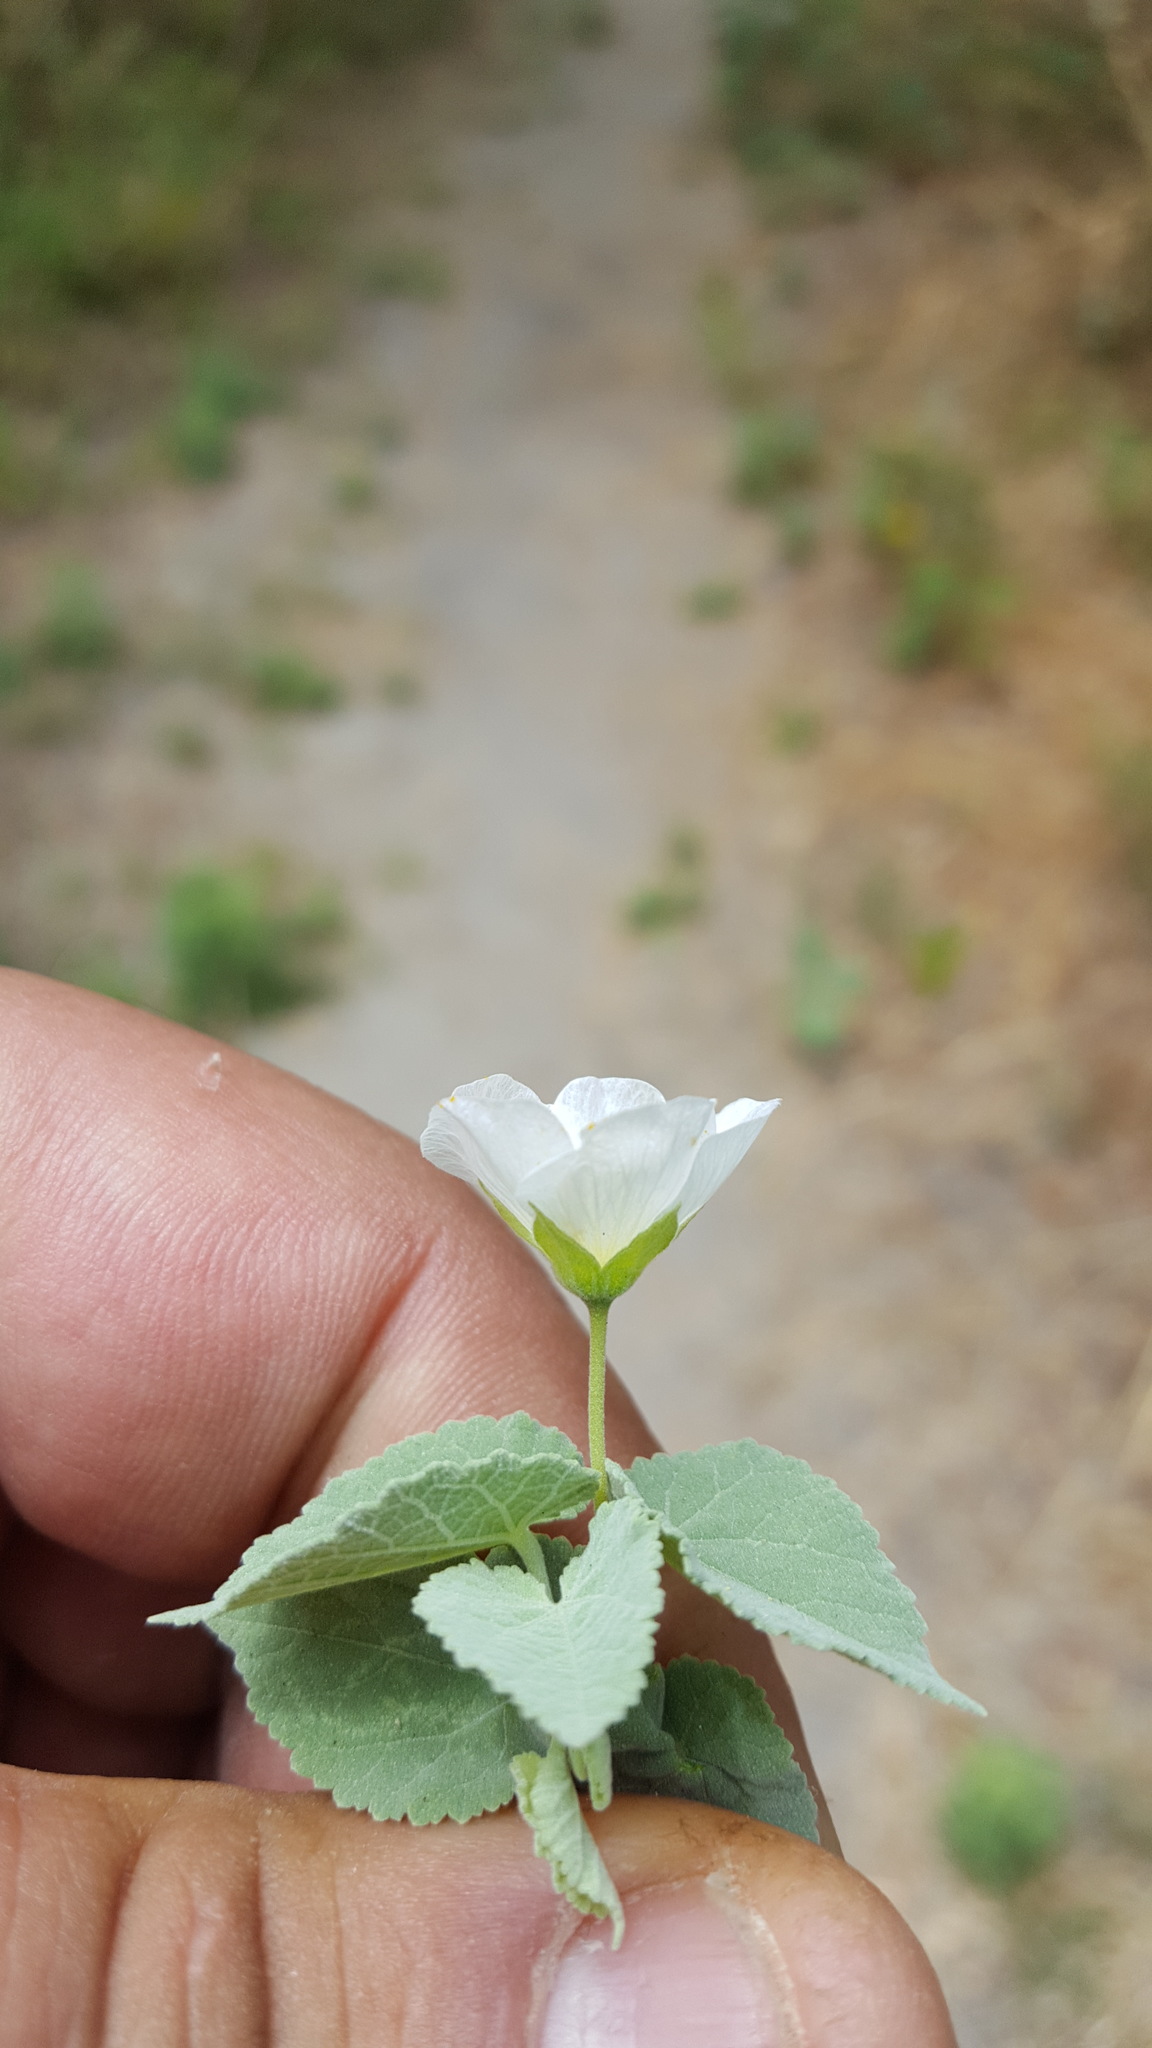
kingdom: Plantae
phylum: Tracheophyta
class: Magnoliopsida
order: Malvales
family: Malvaceae
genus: Herissantia
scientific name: Herissantia crispa
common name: Bladdermallow
